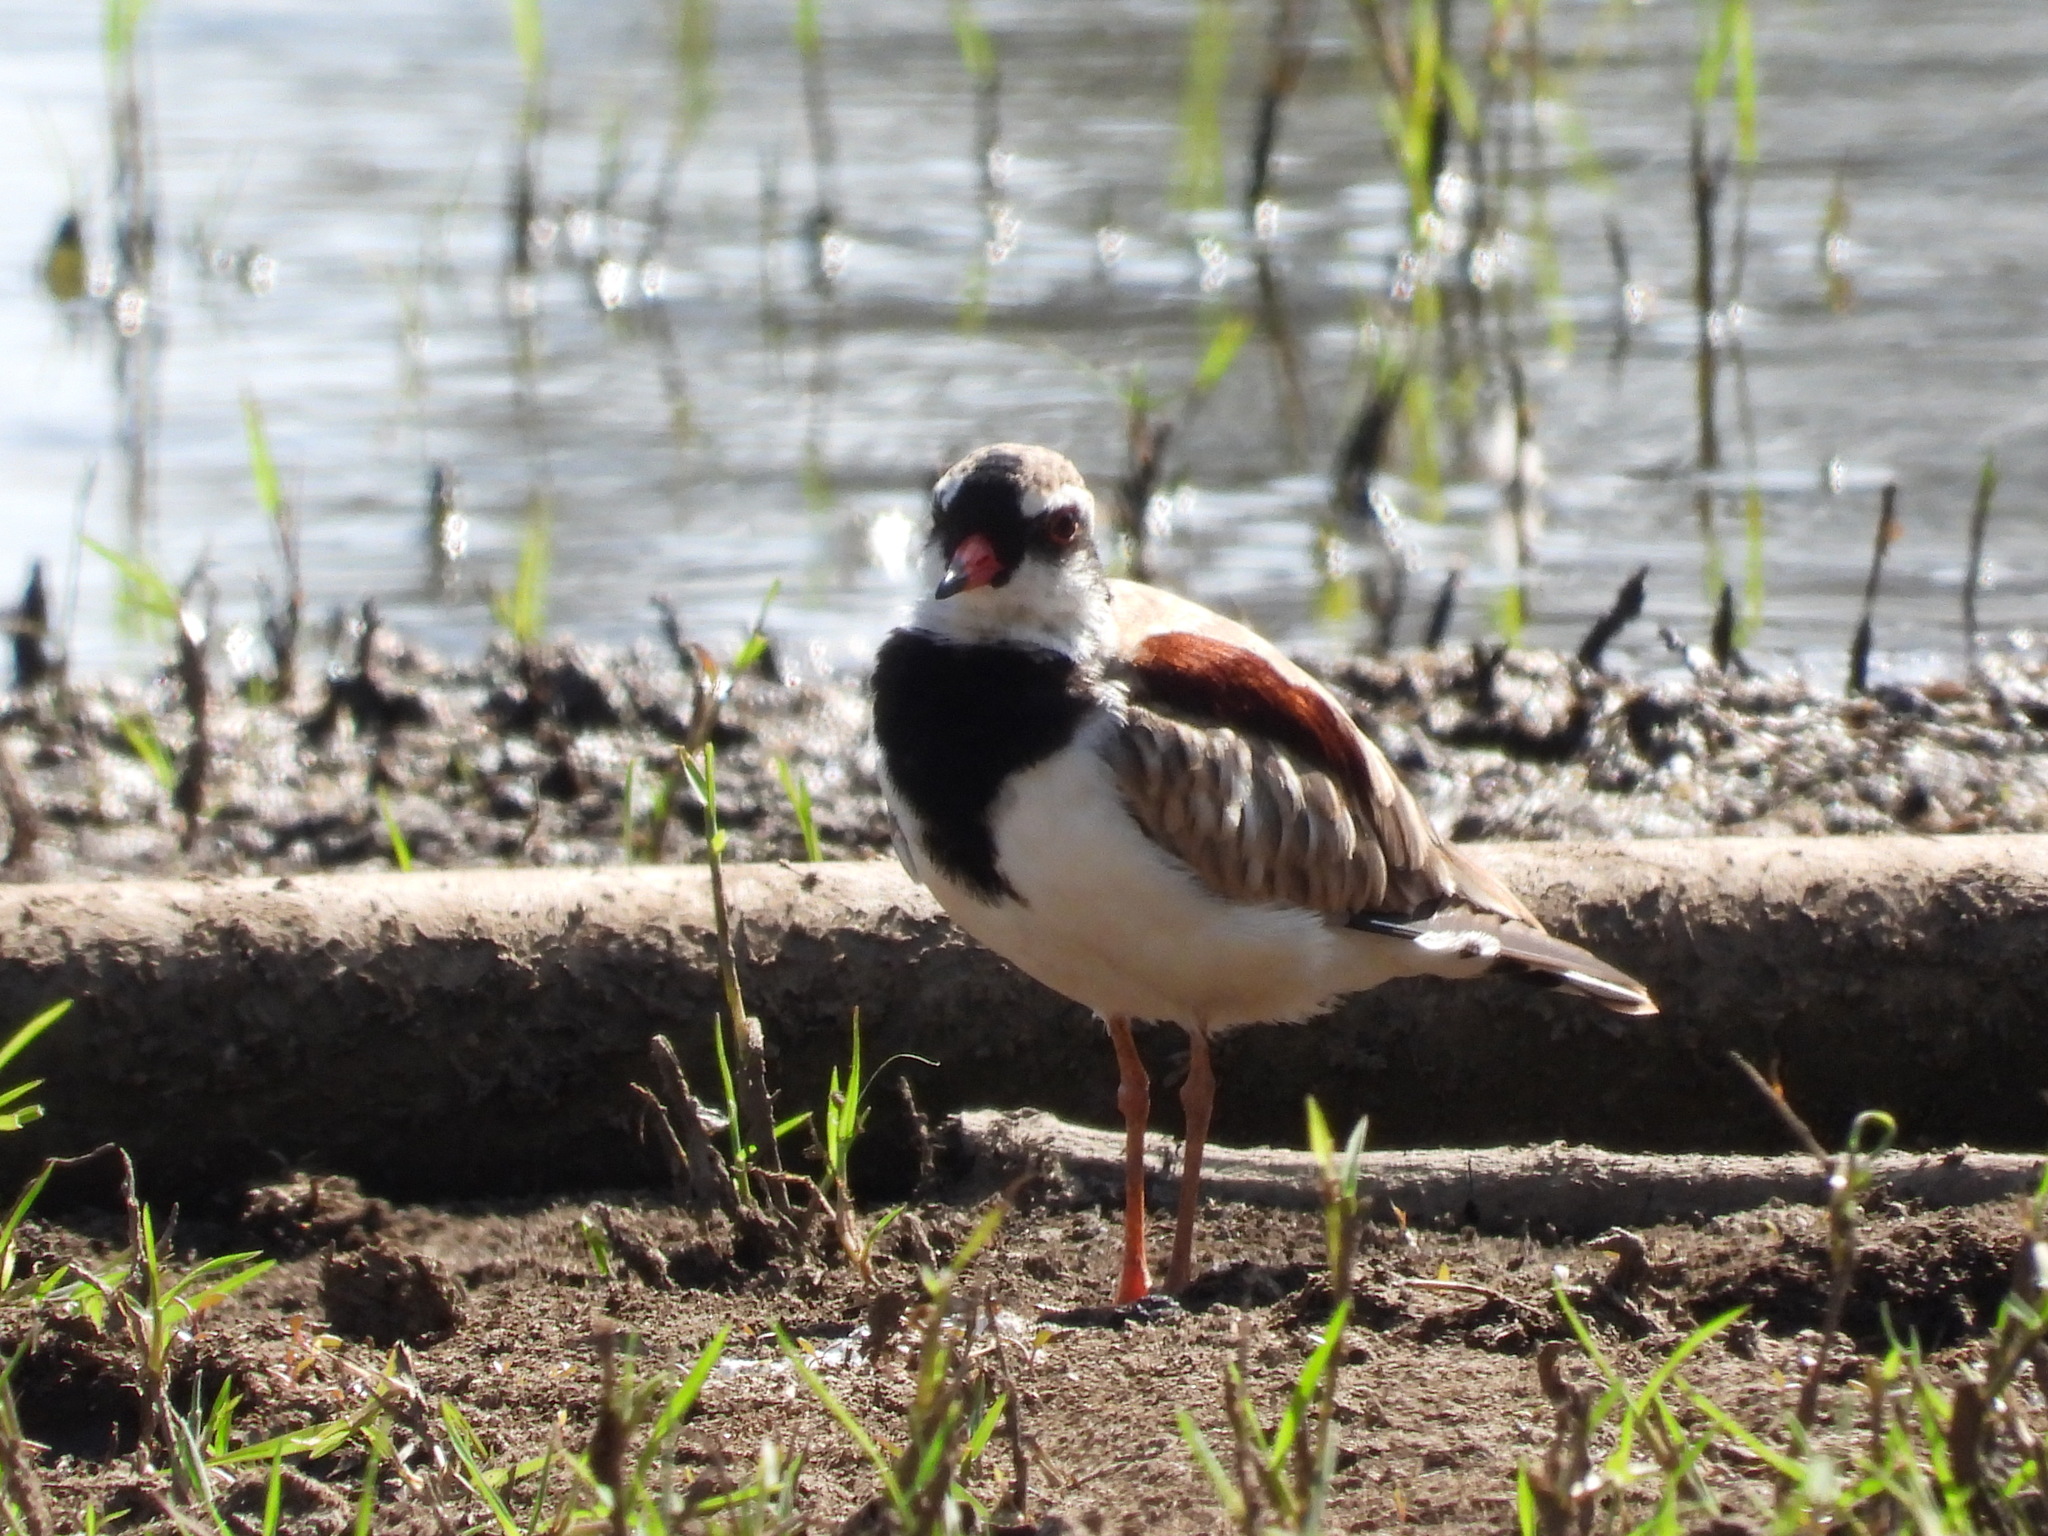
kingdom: Animalia
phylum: Chordata
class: Aves
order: Charadriiformes
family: Charadriidae
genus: Elseyornis
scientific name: Elseyornis melanops
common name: Black-fronted dotterel
